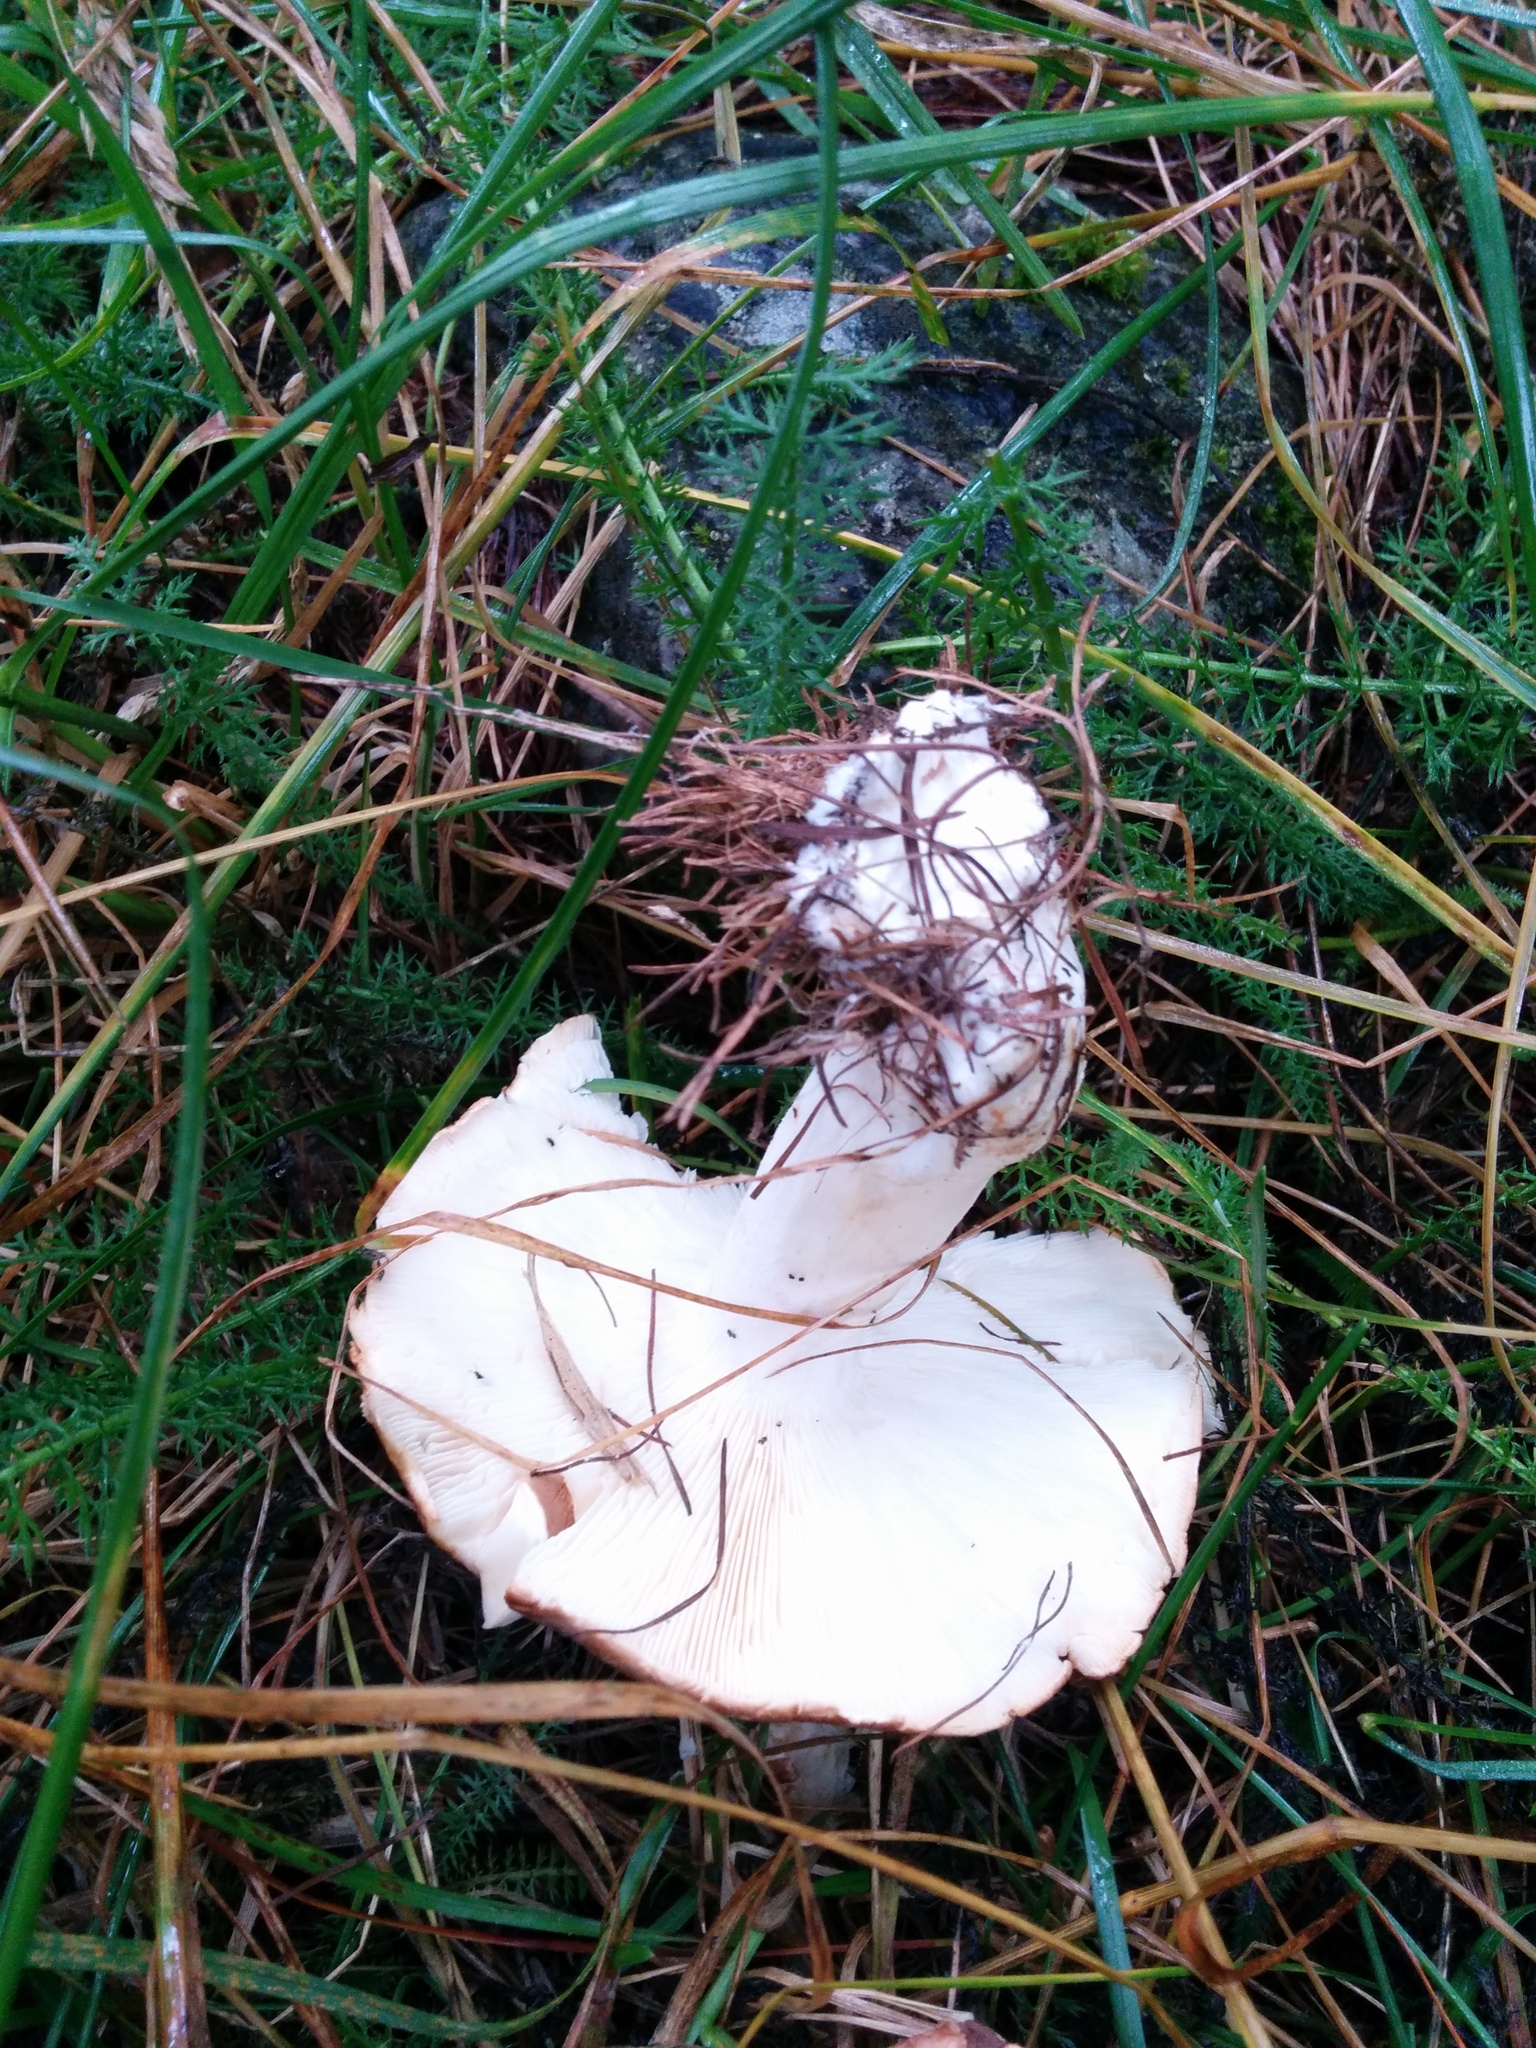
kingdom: Fungi
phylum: Basidiomycota
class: Agaricomycetes
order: Agaricales
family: Tricholomataceae
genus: Leucopaxillus
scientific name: Leucopaxillus gentianeus
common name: Bitter funnel
